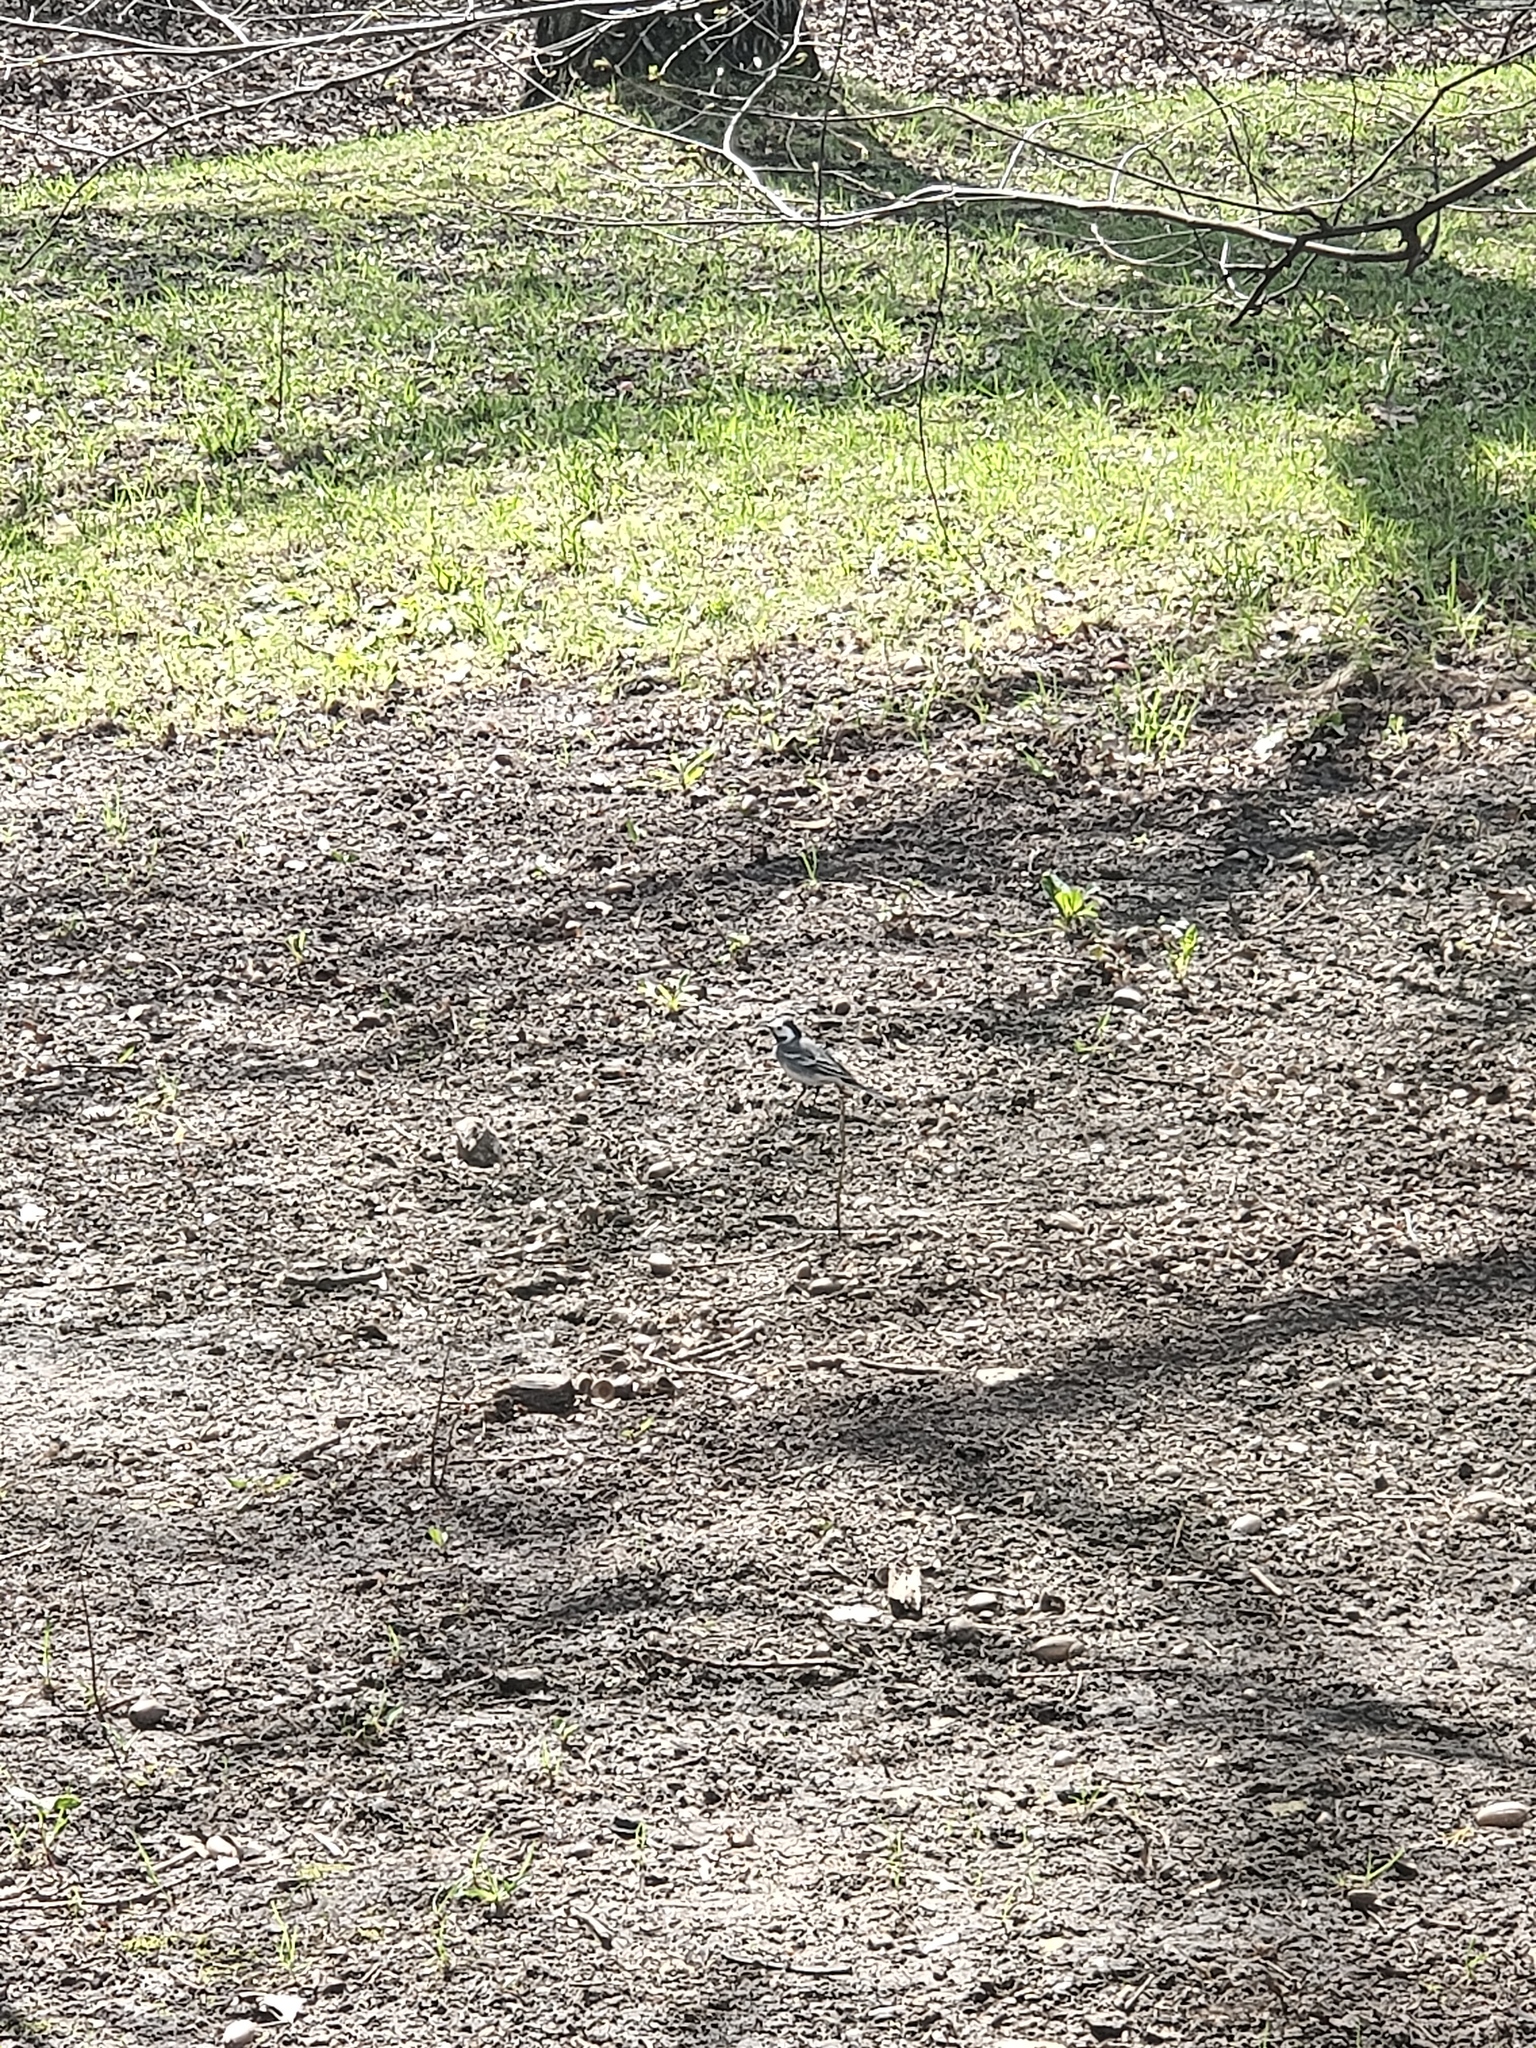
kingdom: Animalia
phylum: Chordata
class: Aves
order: Passeriformes
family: Motacillidae
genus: Motacilla
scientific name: Motacilla alba
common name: White wagtail
